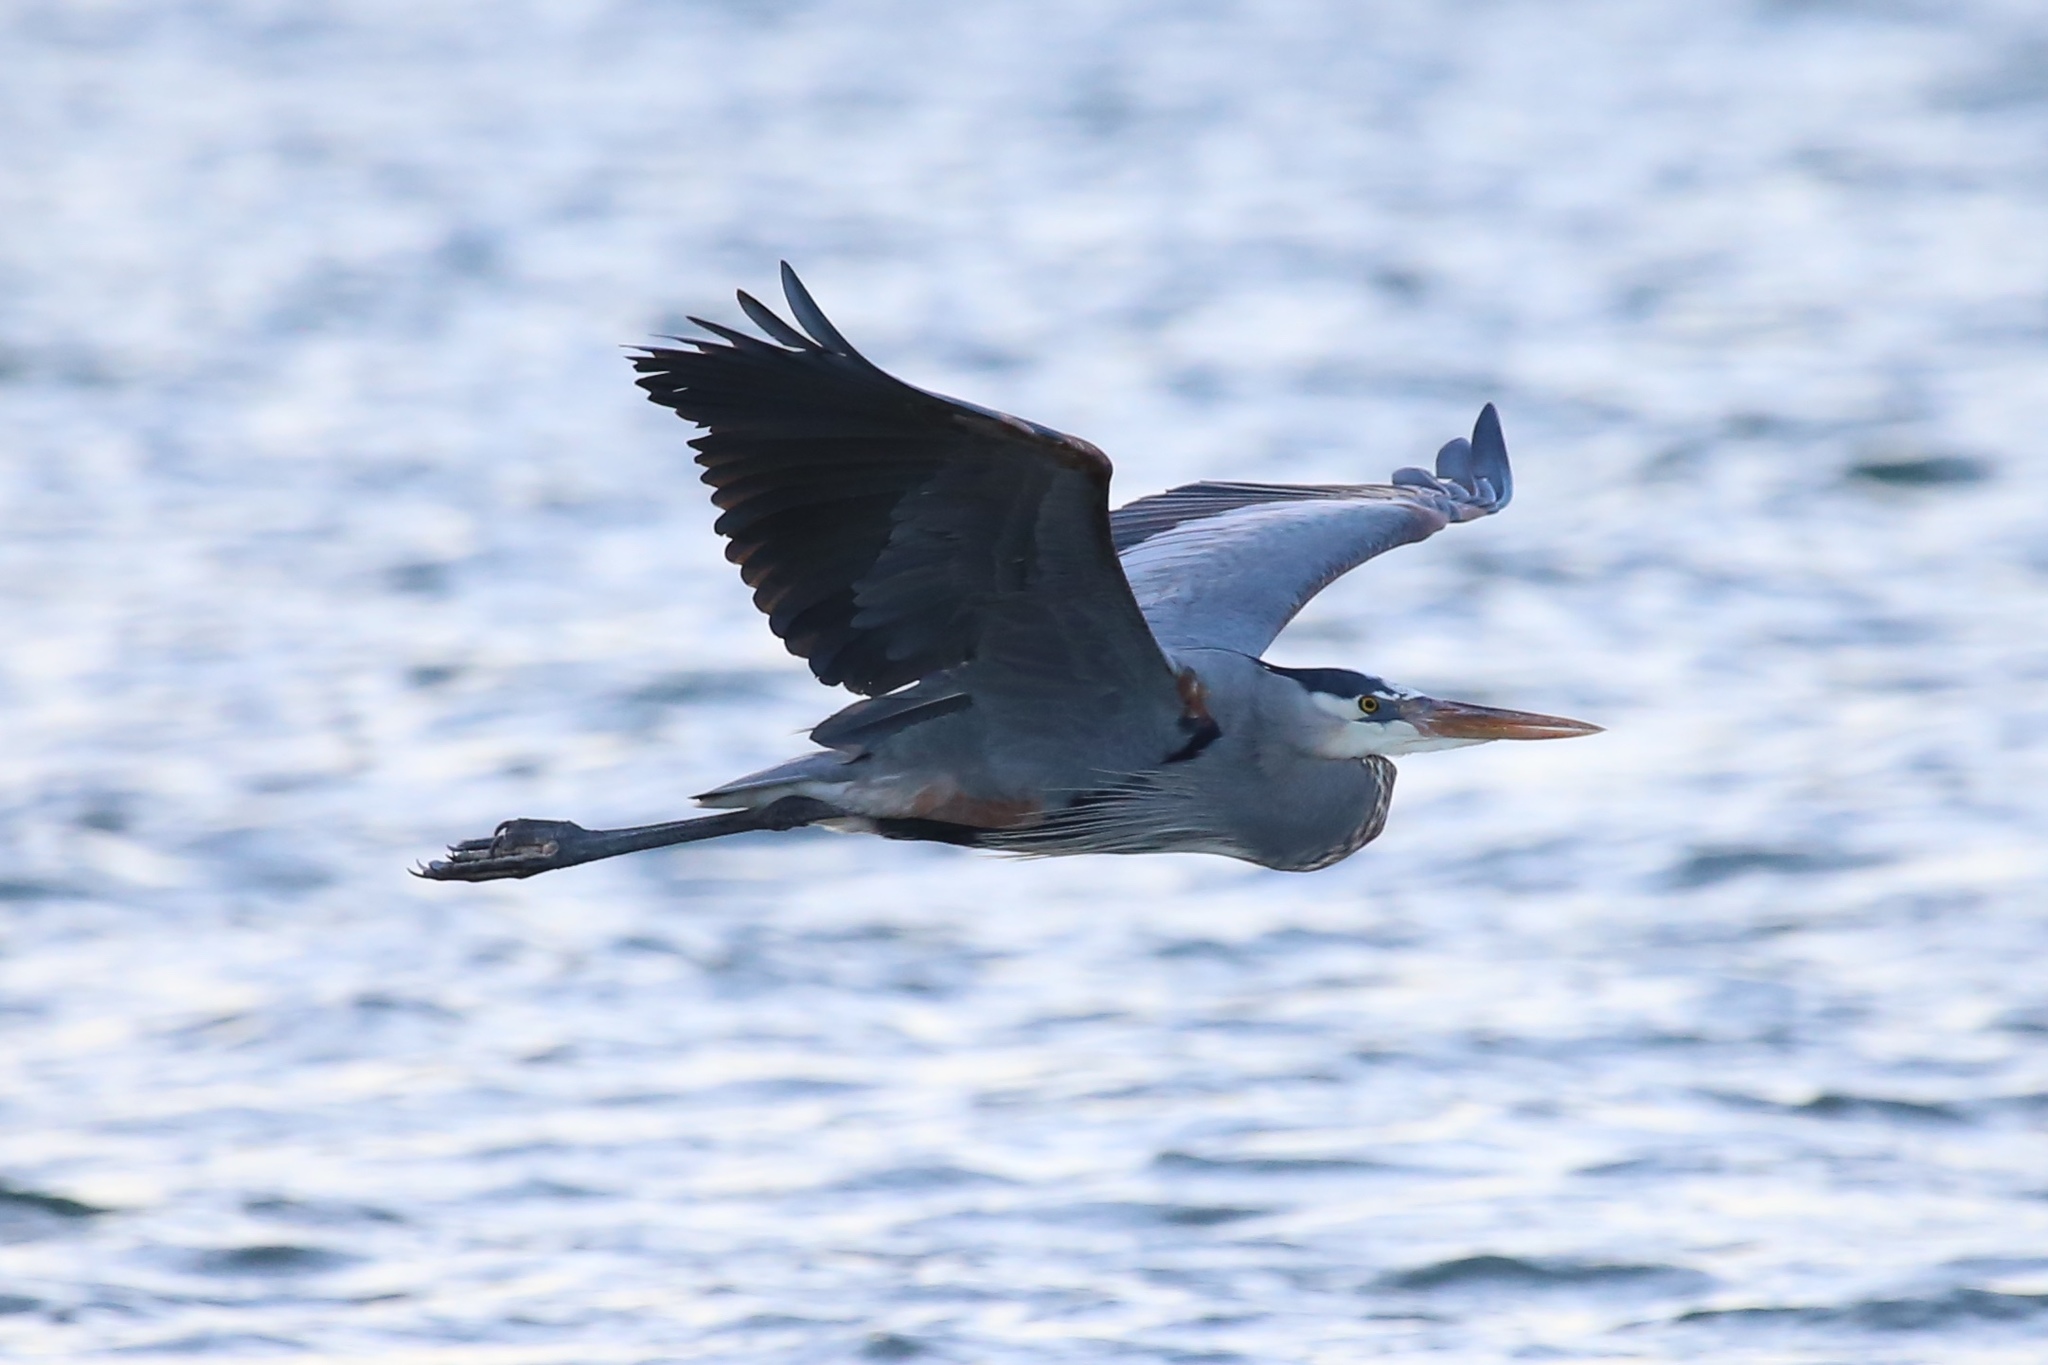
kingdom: Animalia
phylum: Chordata
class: Aves
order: Pelecaniformes
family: Ardeidae
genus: Ardea
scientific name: Ardea herodias
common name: Great blue heron
